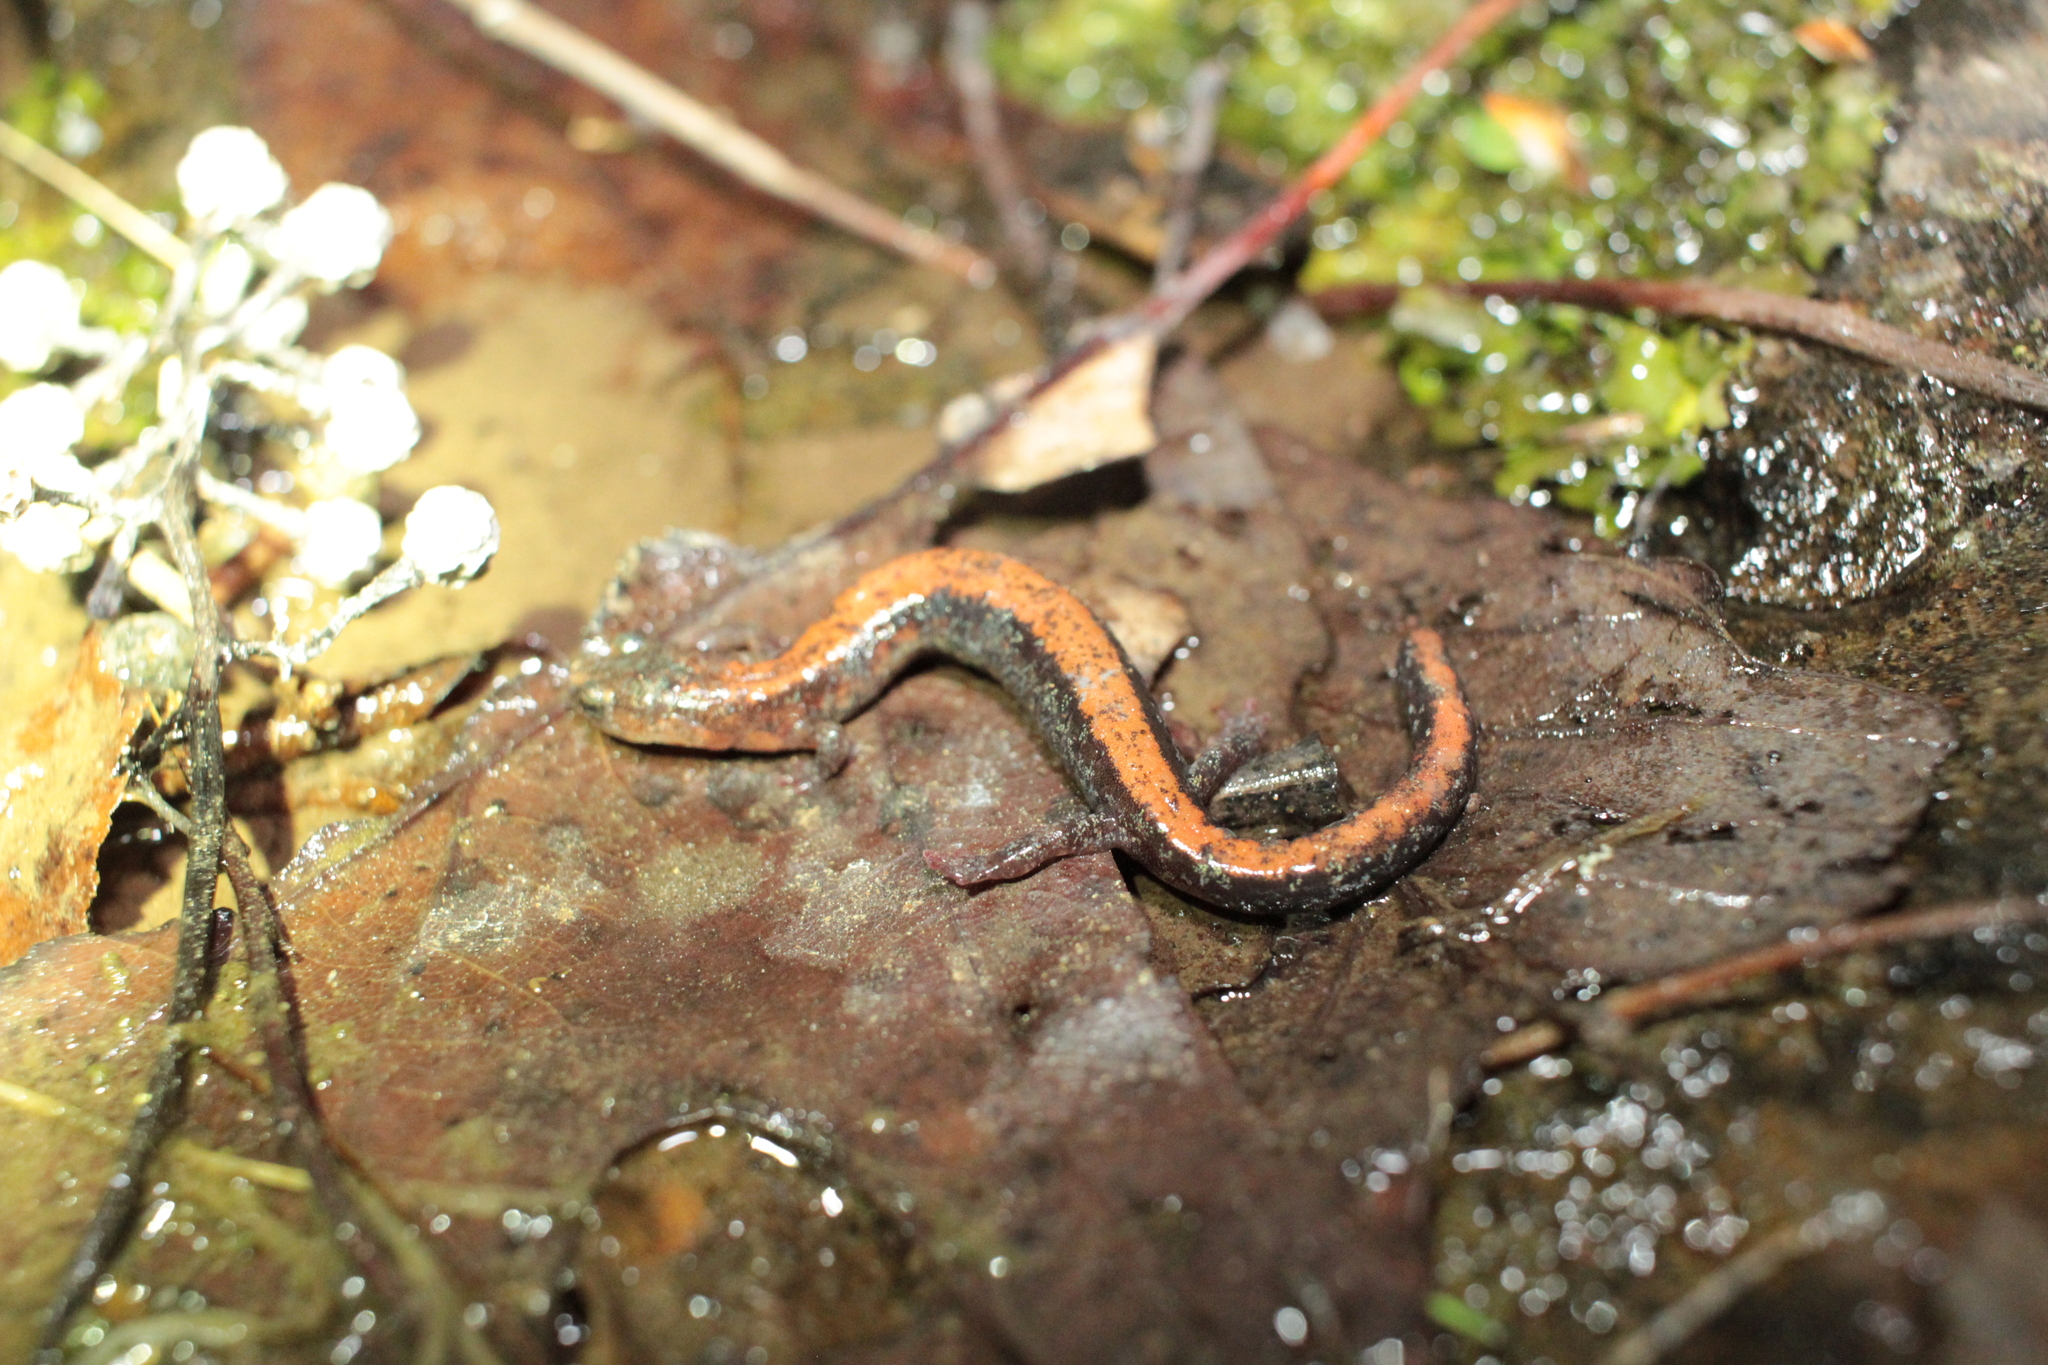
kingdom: Animalia
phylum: Chordata
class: Amphibia
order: Caudata
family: Plethodontidae
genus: Plethodon
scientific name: Plethodon
